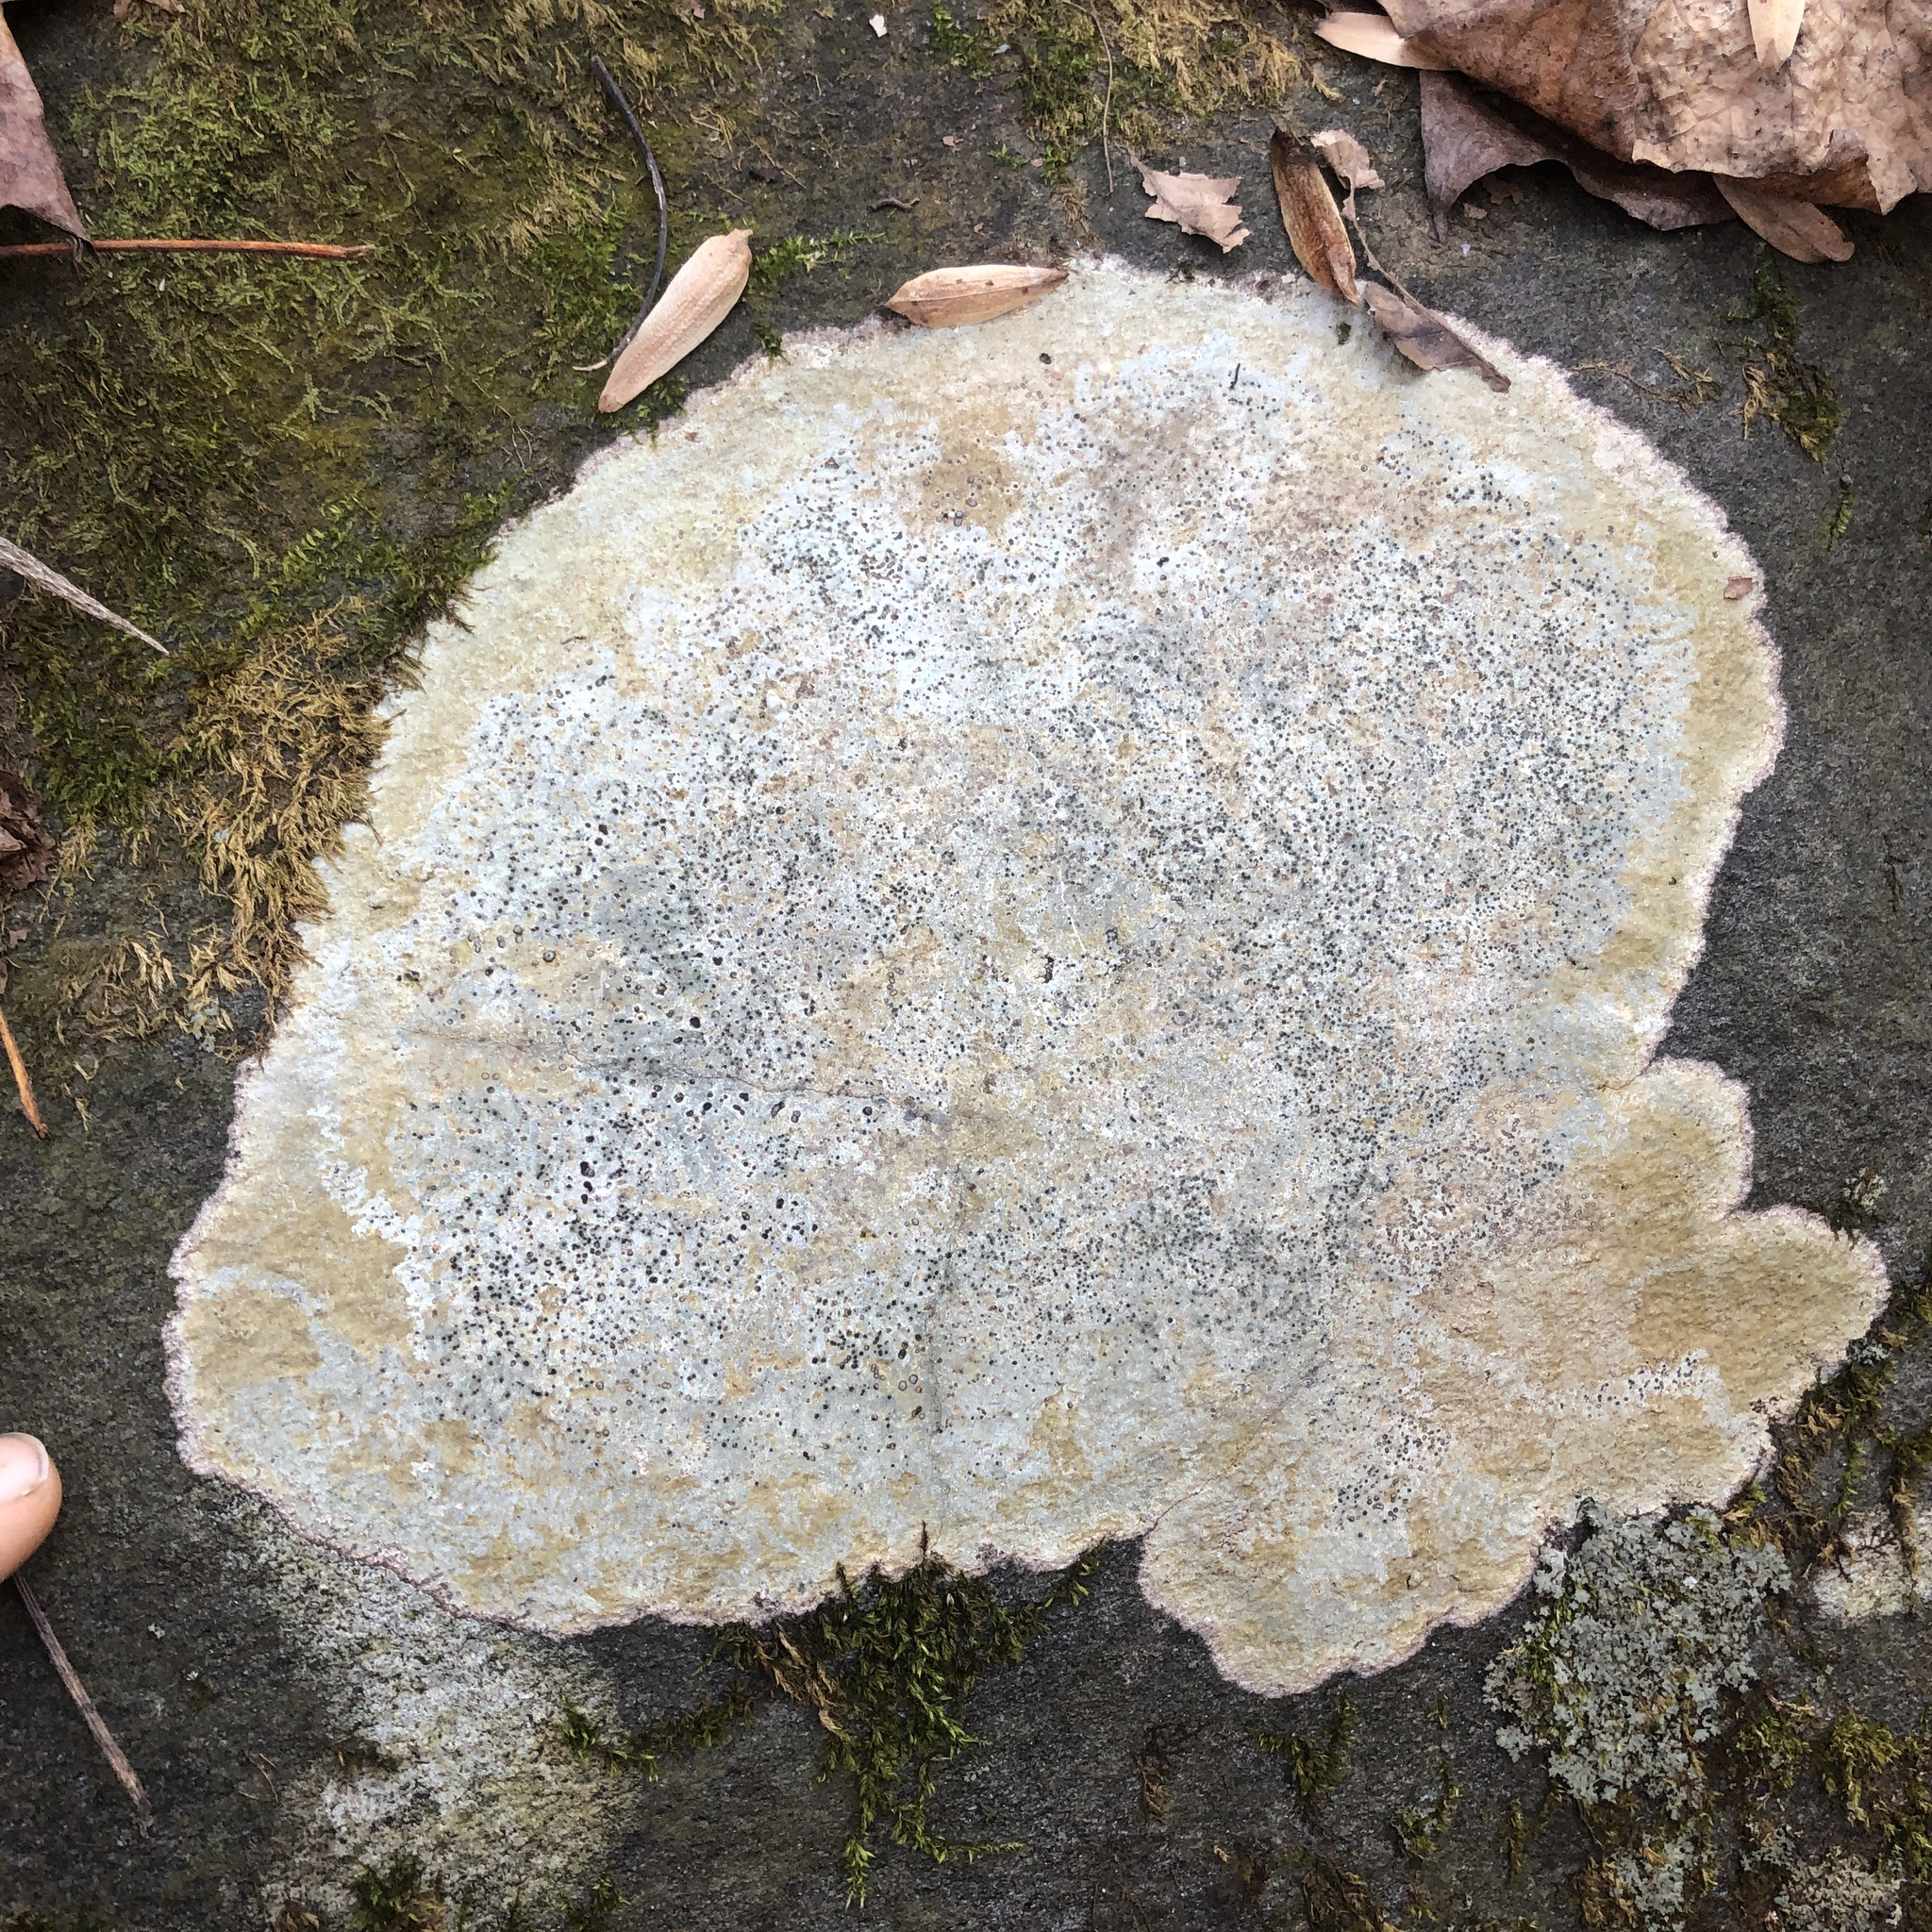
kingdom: Fungi
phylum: Ascomycota
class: Lecanoromycetes
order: Lecideales
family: Lecideaceae
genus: Porpidia
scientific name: Porpidia albocaerulescens
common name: Smokey-eyed boulder lichen
